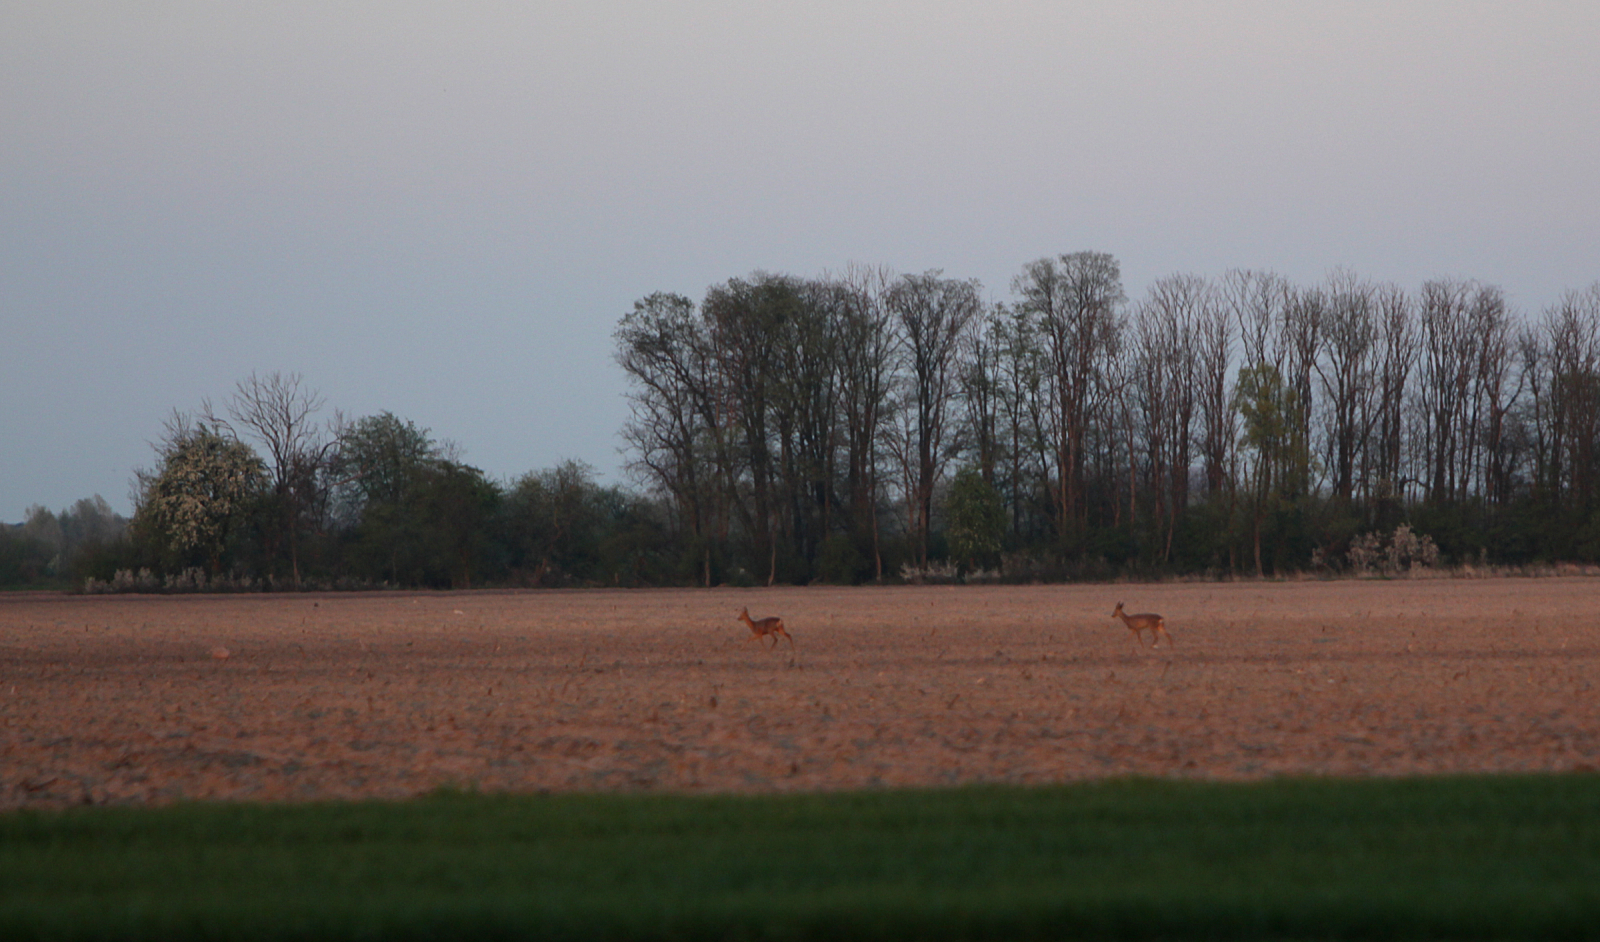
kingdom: Animalia
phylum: Chordata
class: Mammalia
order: Artiodactyla
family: Cervidae
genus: Capreolus
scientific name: Capreolus capreolus
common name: Western roe deer
